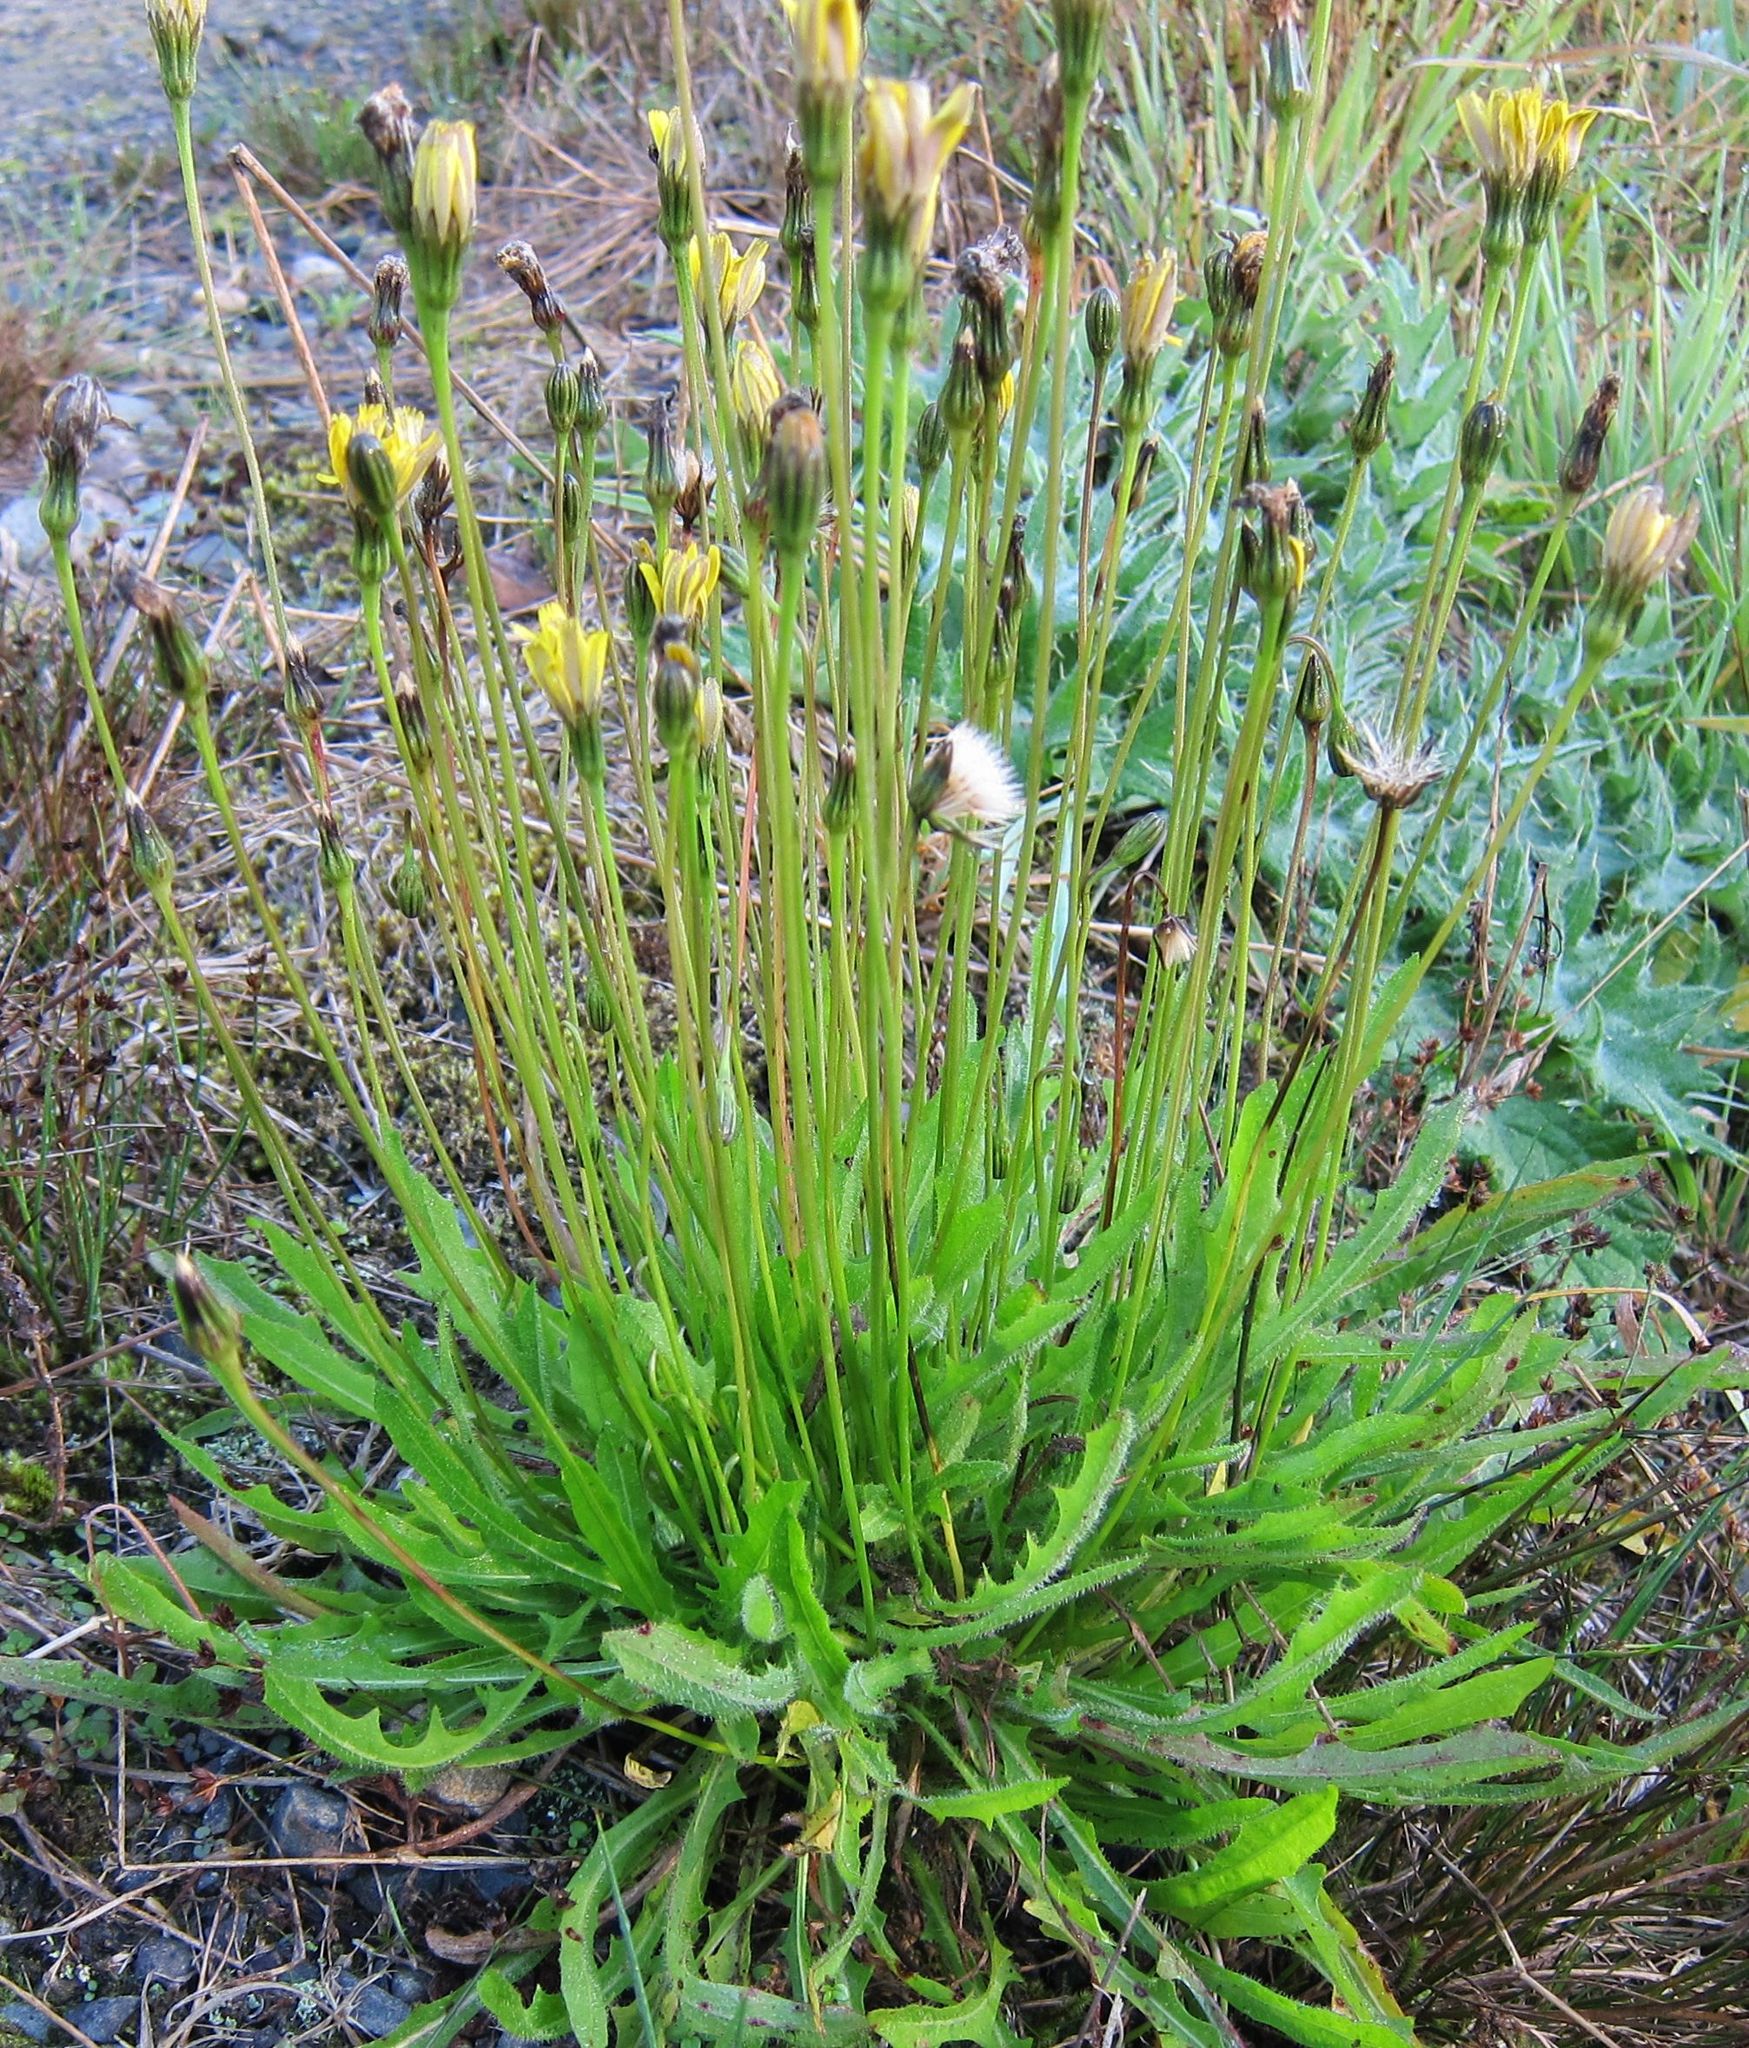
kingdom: Plantae
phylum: Tracheophyta
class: Magnoliopsida
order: Asterales
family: Asteraceae
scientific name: Asteraceae
